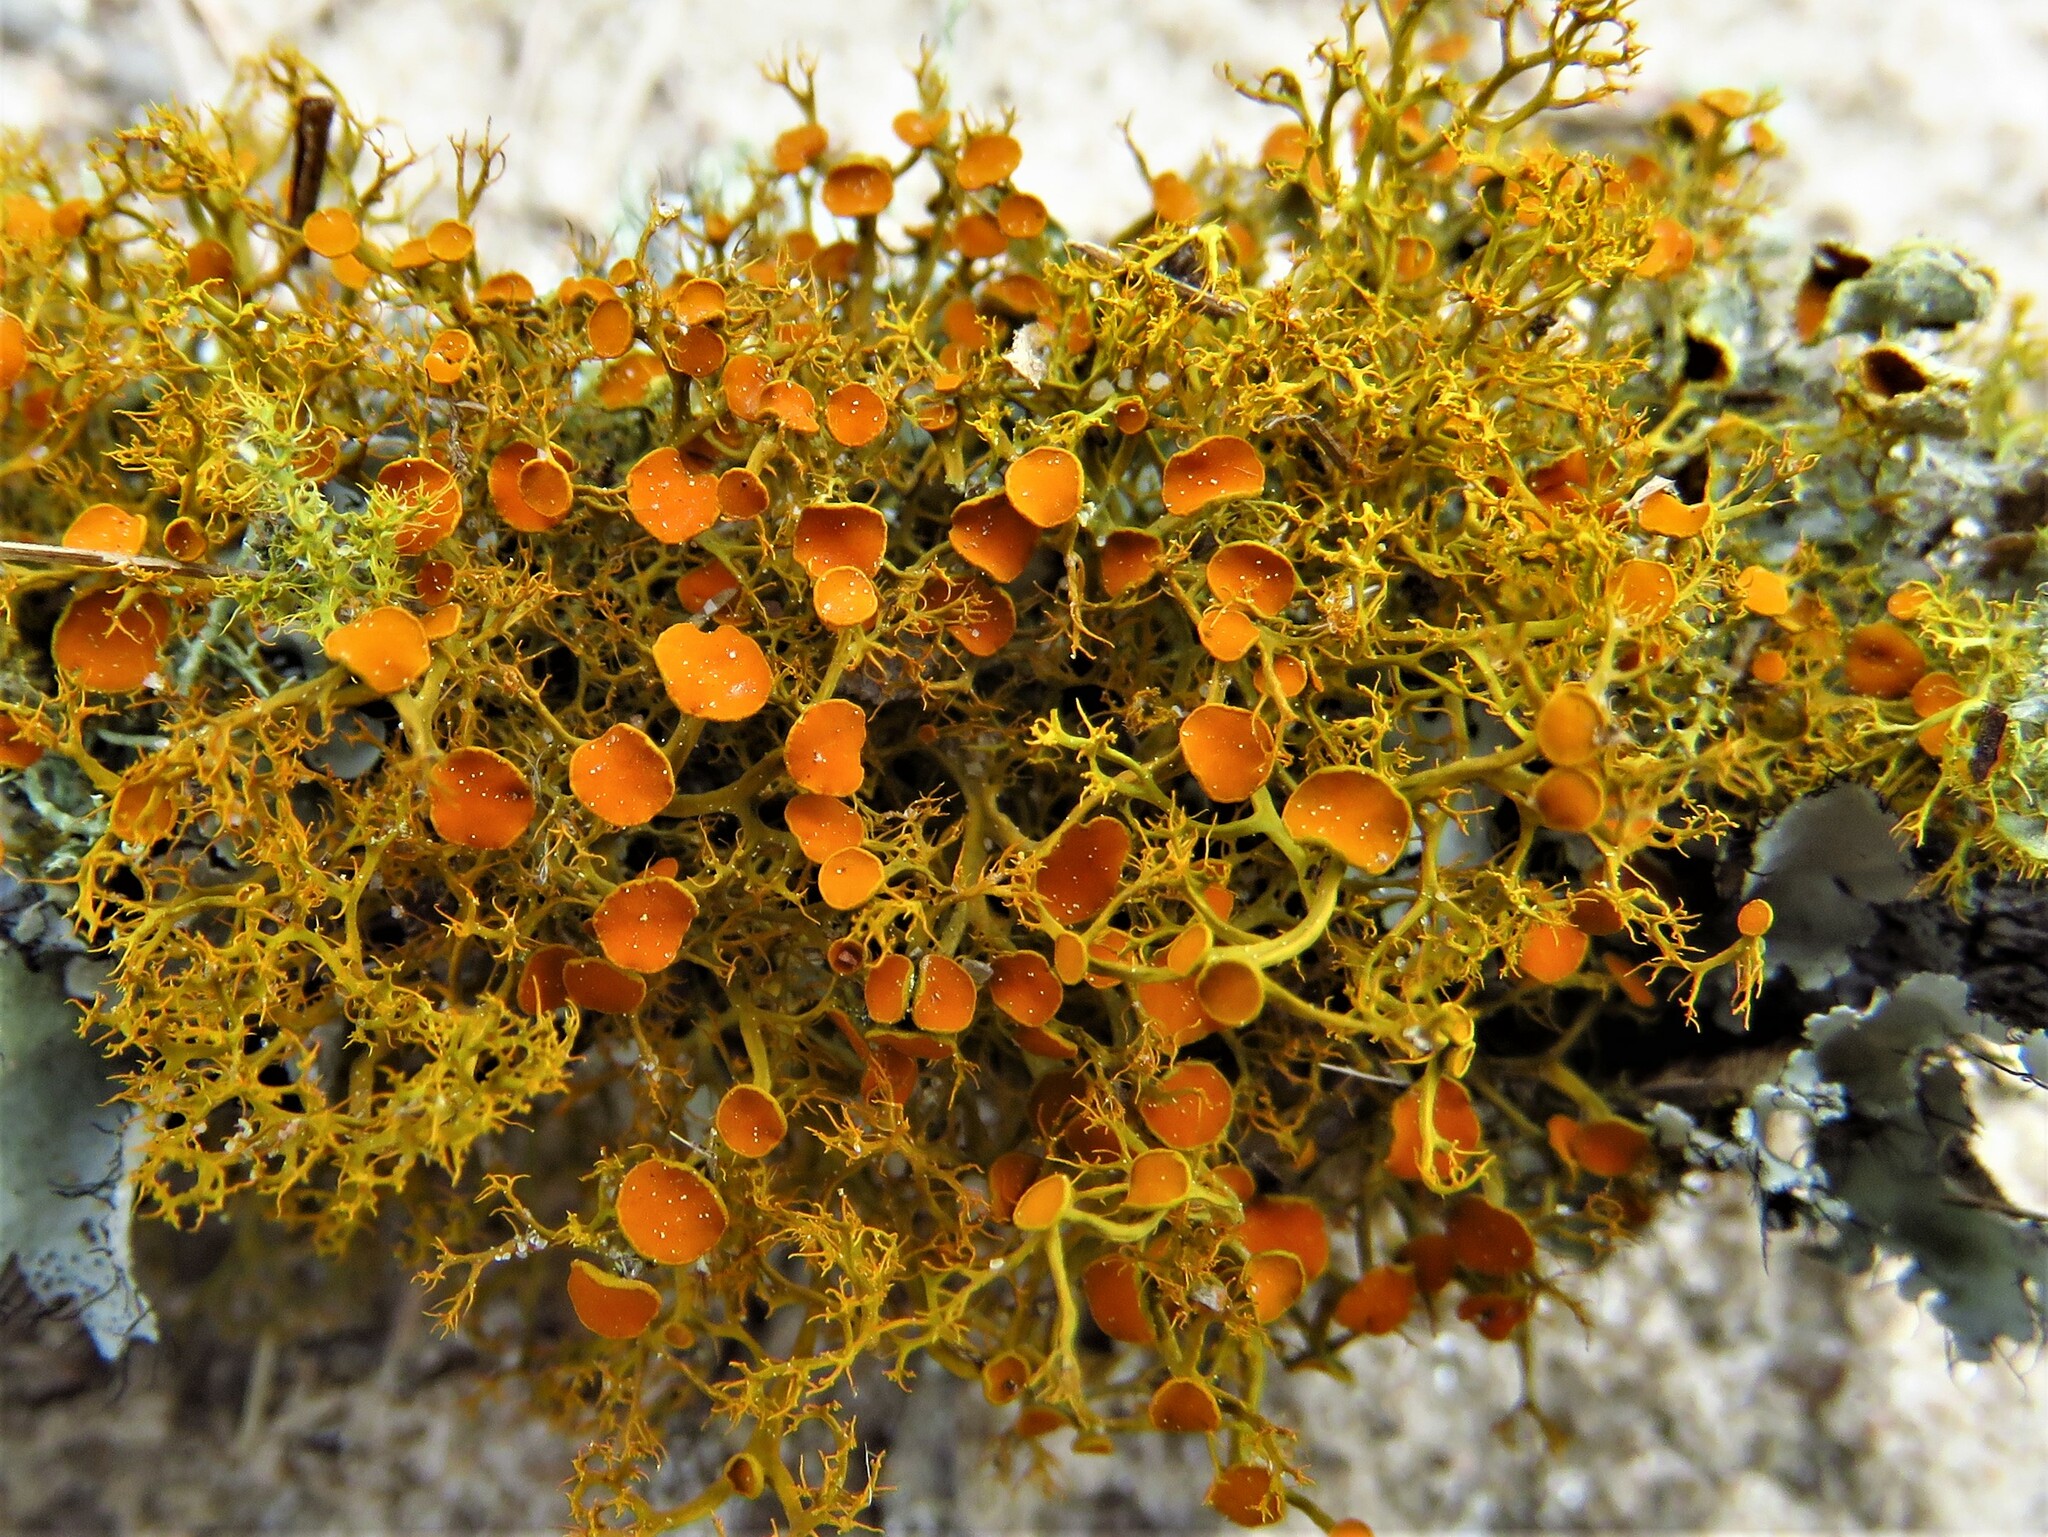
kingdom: Fungi
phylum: Ascomycota
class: Lecanoromycetes
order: Teloschistales
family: Teloschistaceae
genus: Teloschistes
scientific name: Teloschistes exilis
